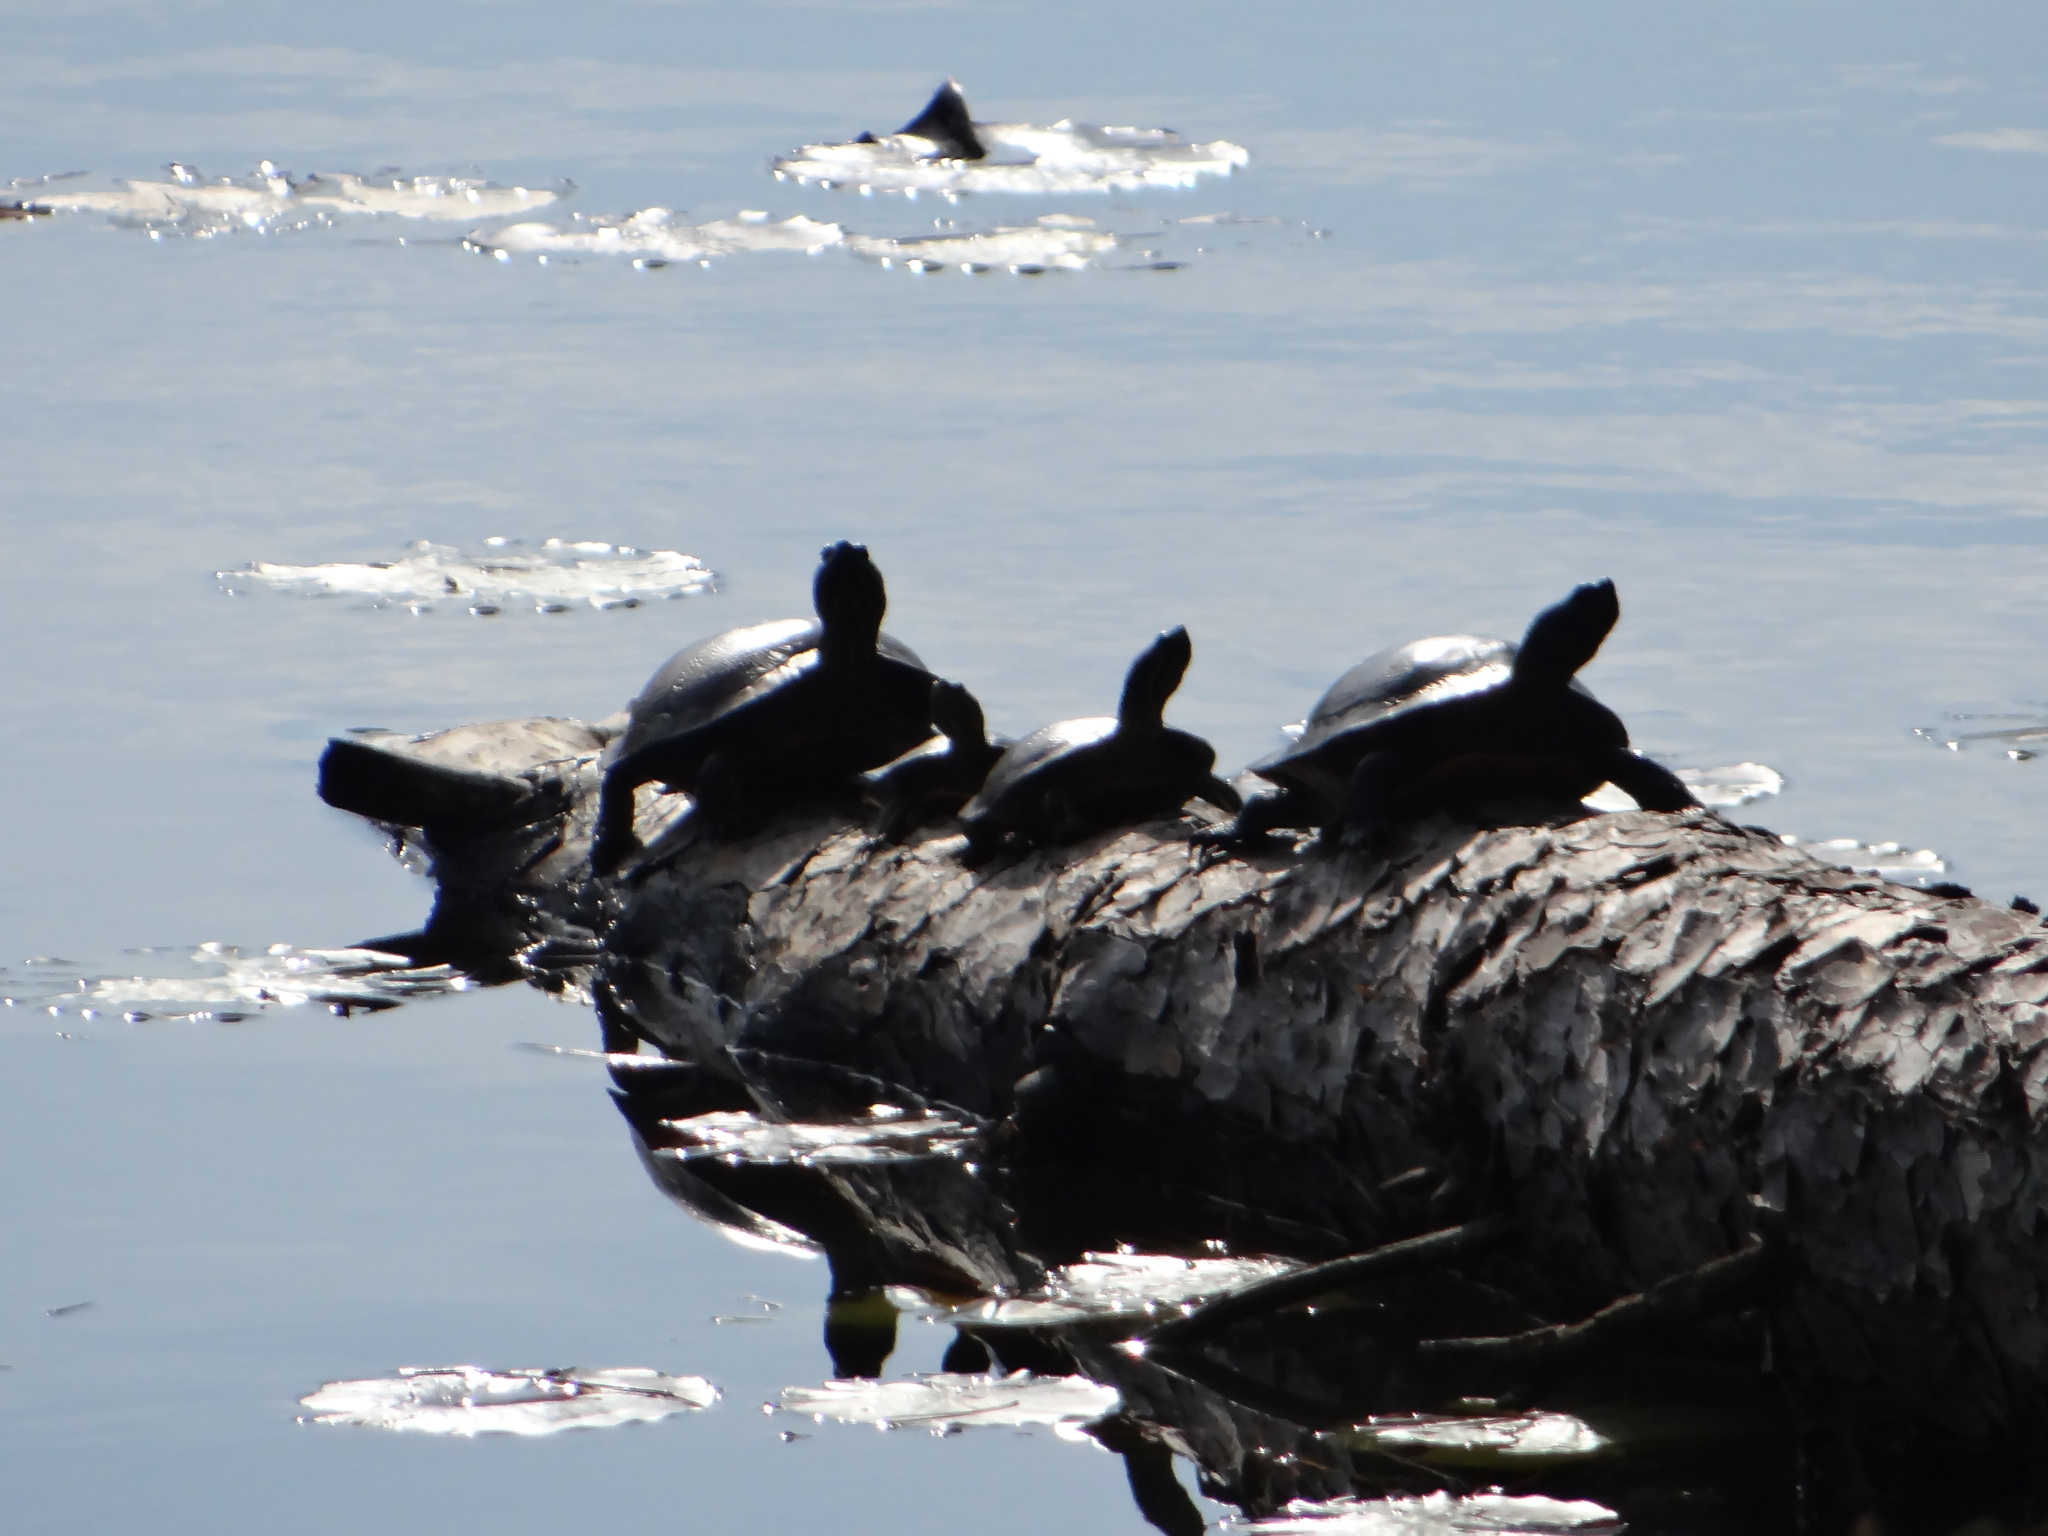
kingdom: Animalia
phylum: Chordata
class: Testudines
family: Emydidae
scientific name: Emydidae
